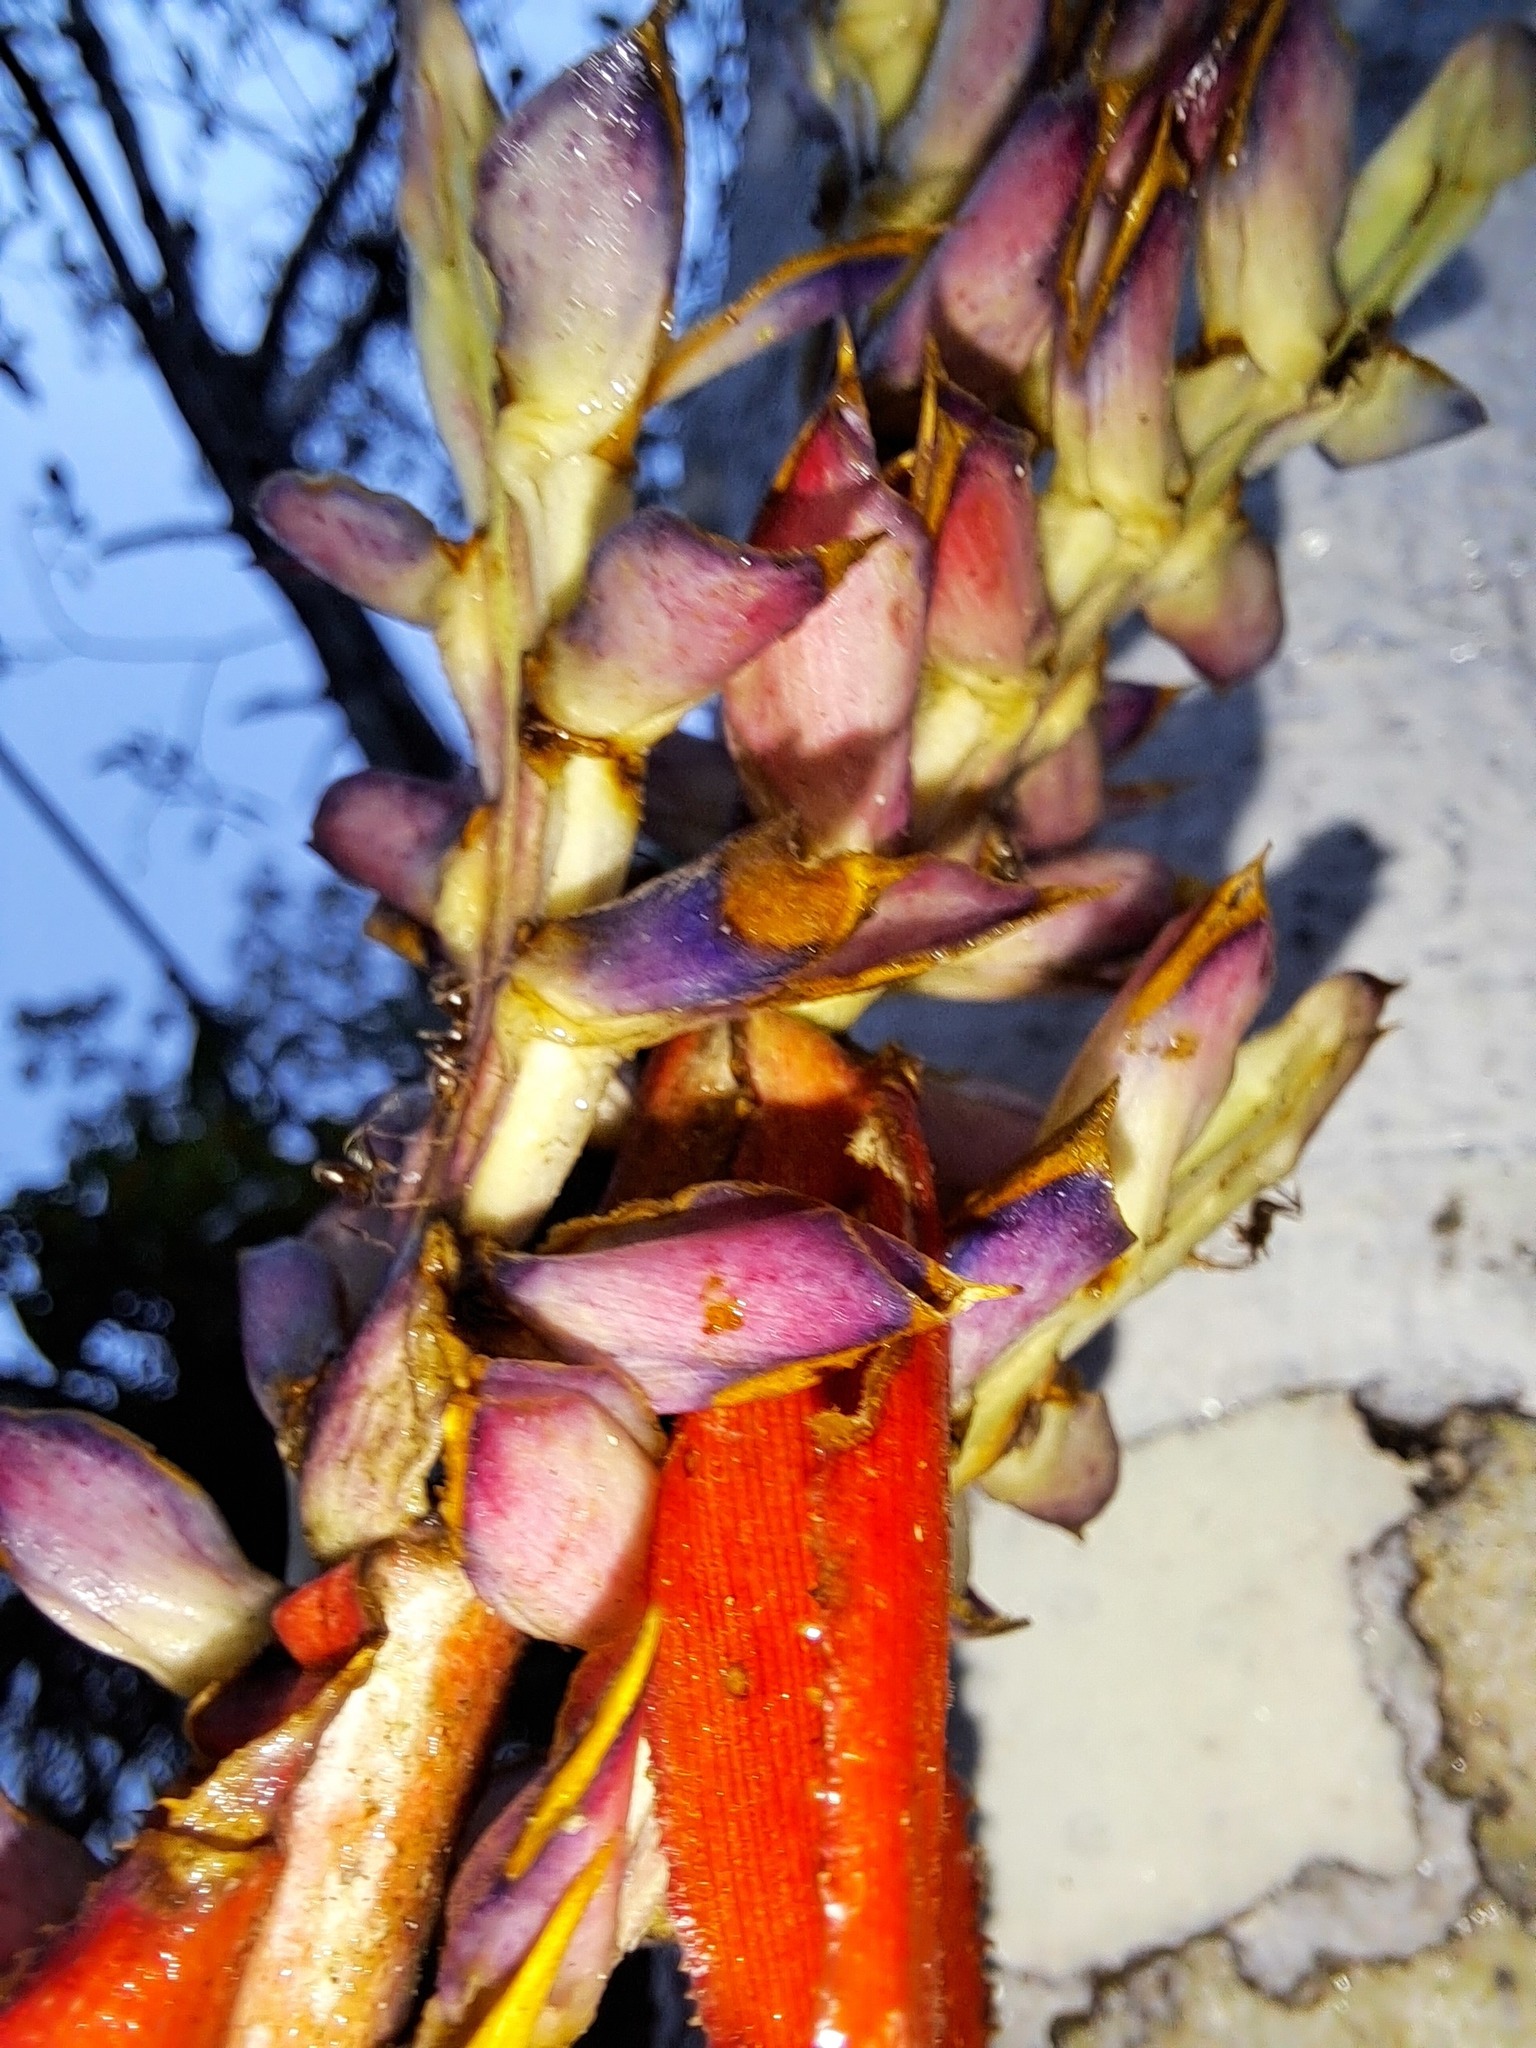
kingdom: Plantae
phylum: Tracheophyta
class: Liliopsida
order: Poales
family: Bromeliaceae
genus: Aechmea
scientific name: Aechmea tillandsioides
